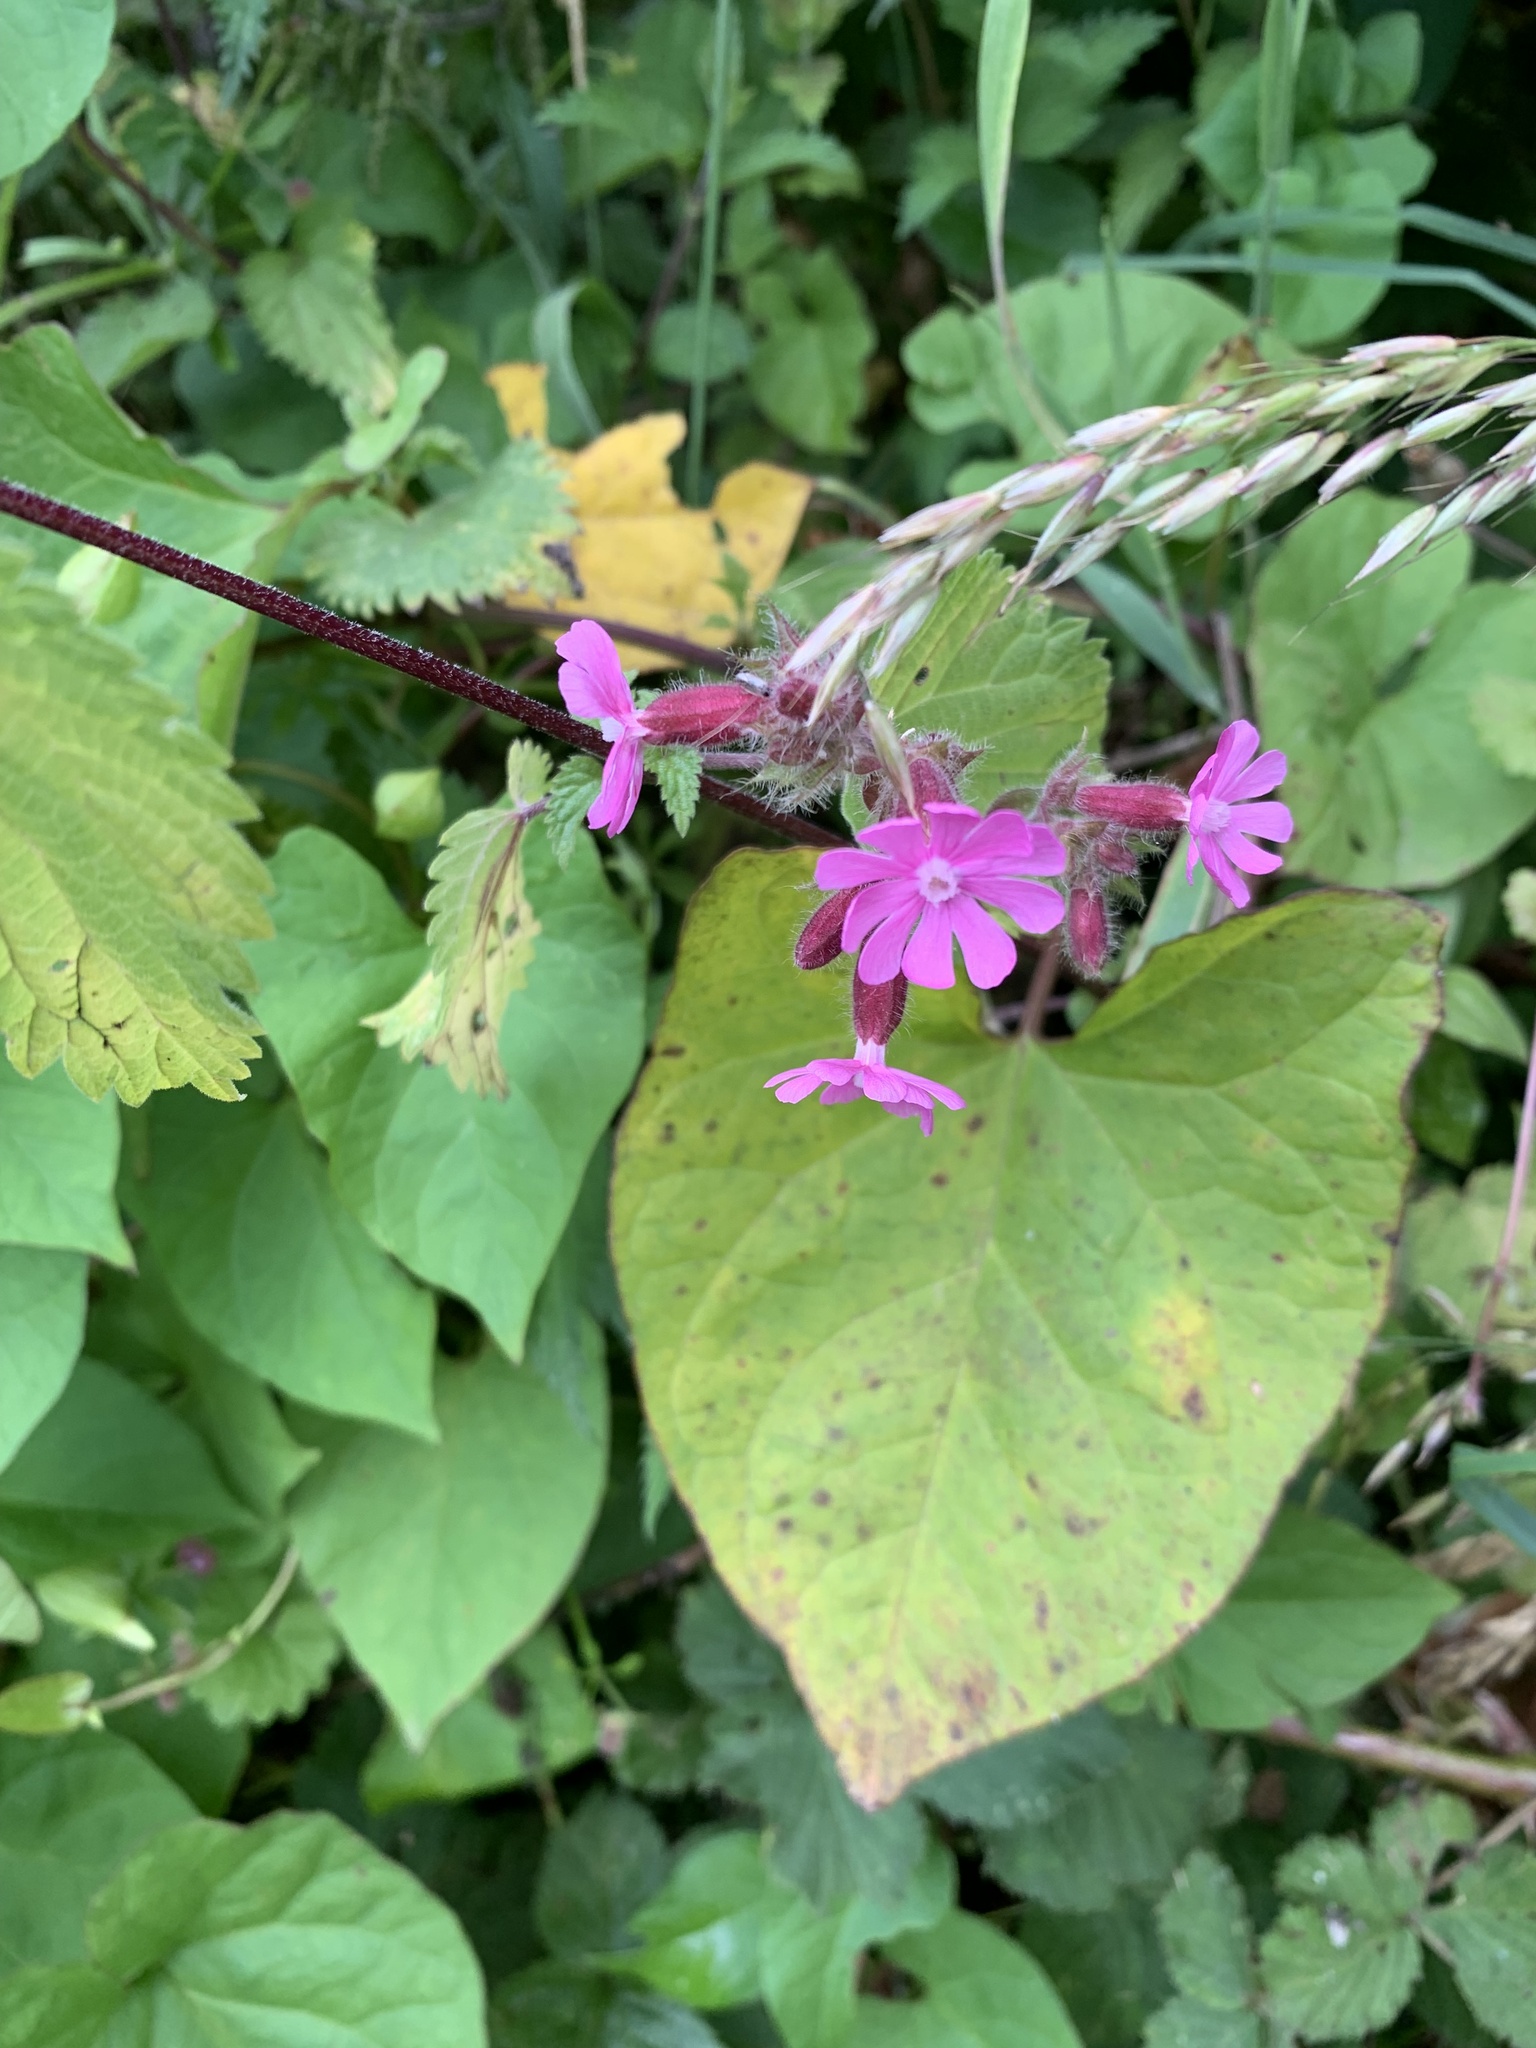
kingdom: Plantae
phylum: Tracheophyta
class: Magnoliopsida
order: Caryophyllales
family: Caryophyllaceae
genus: Silene
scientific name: Silene dioica
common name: Red campion
